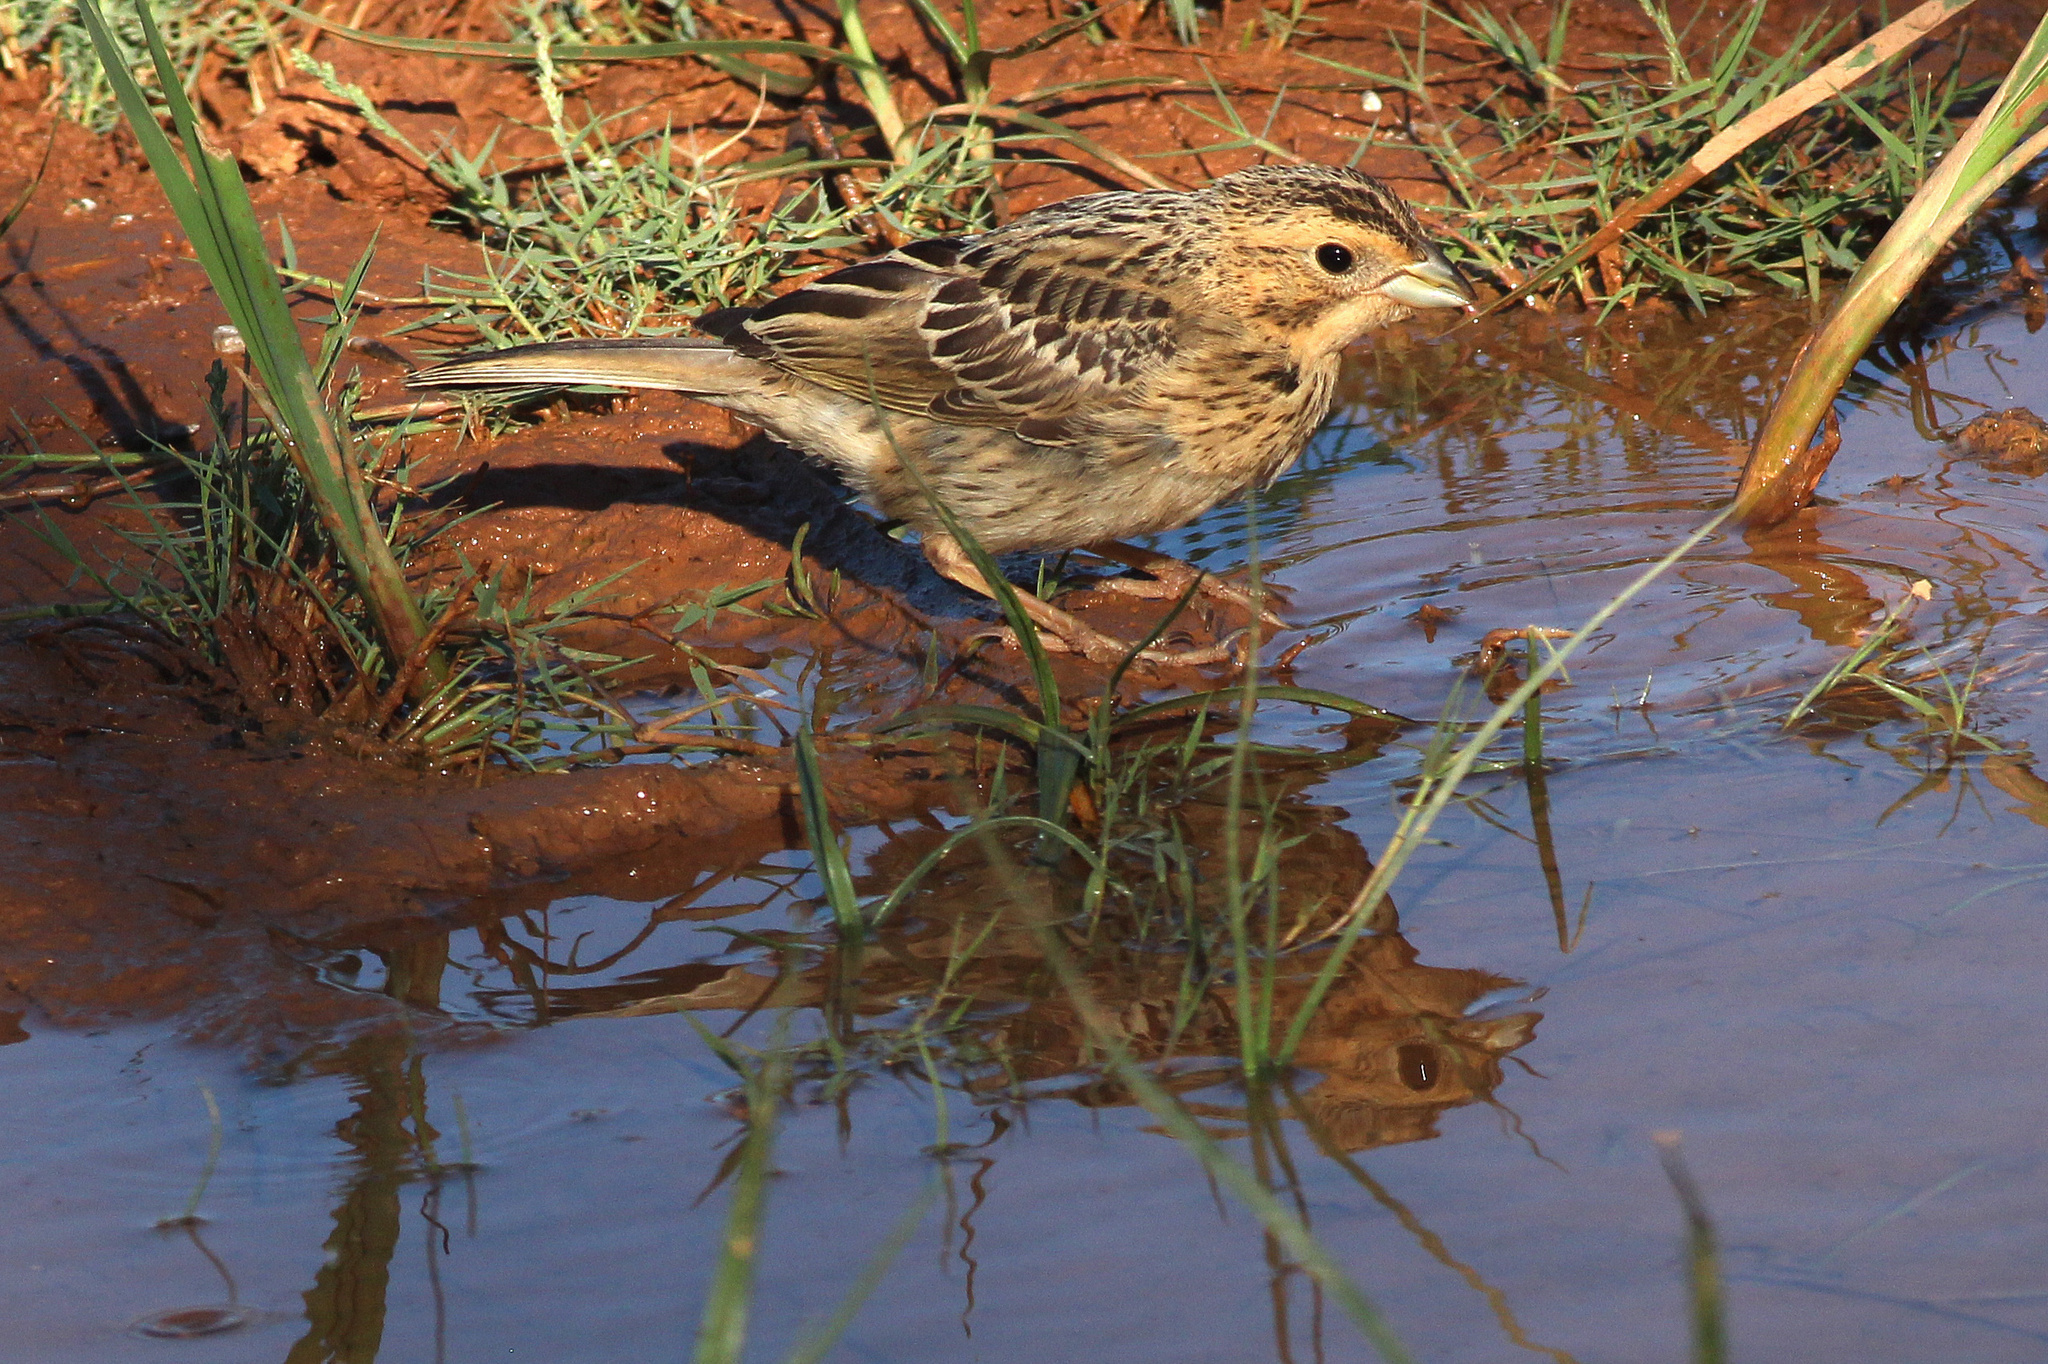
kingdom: Animalia
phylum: Chordata
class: Aves
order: Passeriformes
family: Emberizidae
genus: Emberiza
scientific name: Emberiza cirlus
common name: Cirl bunting
